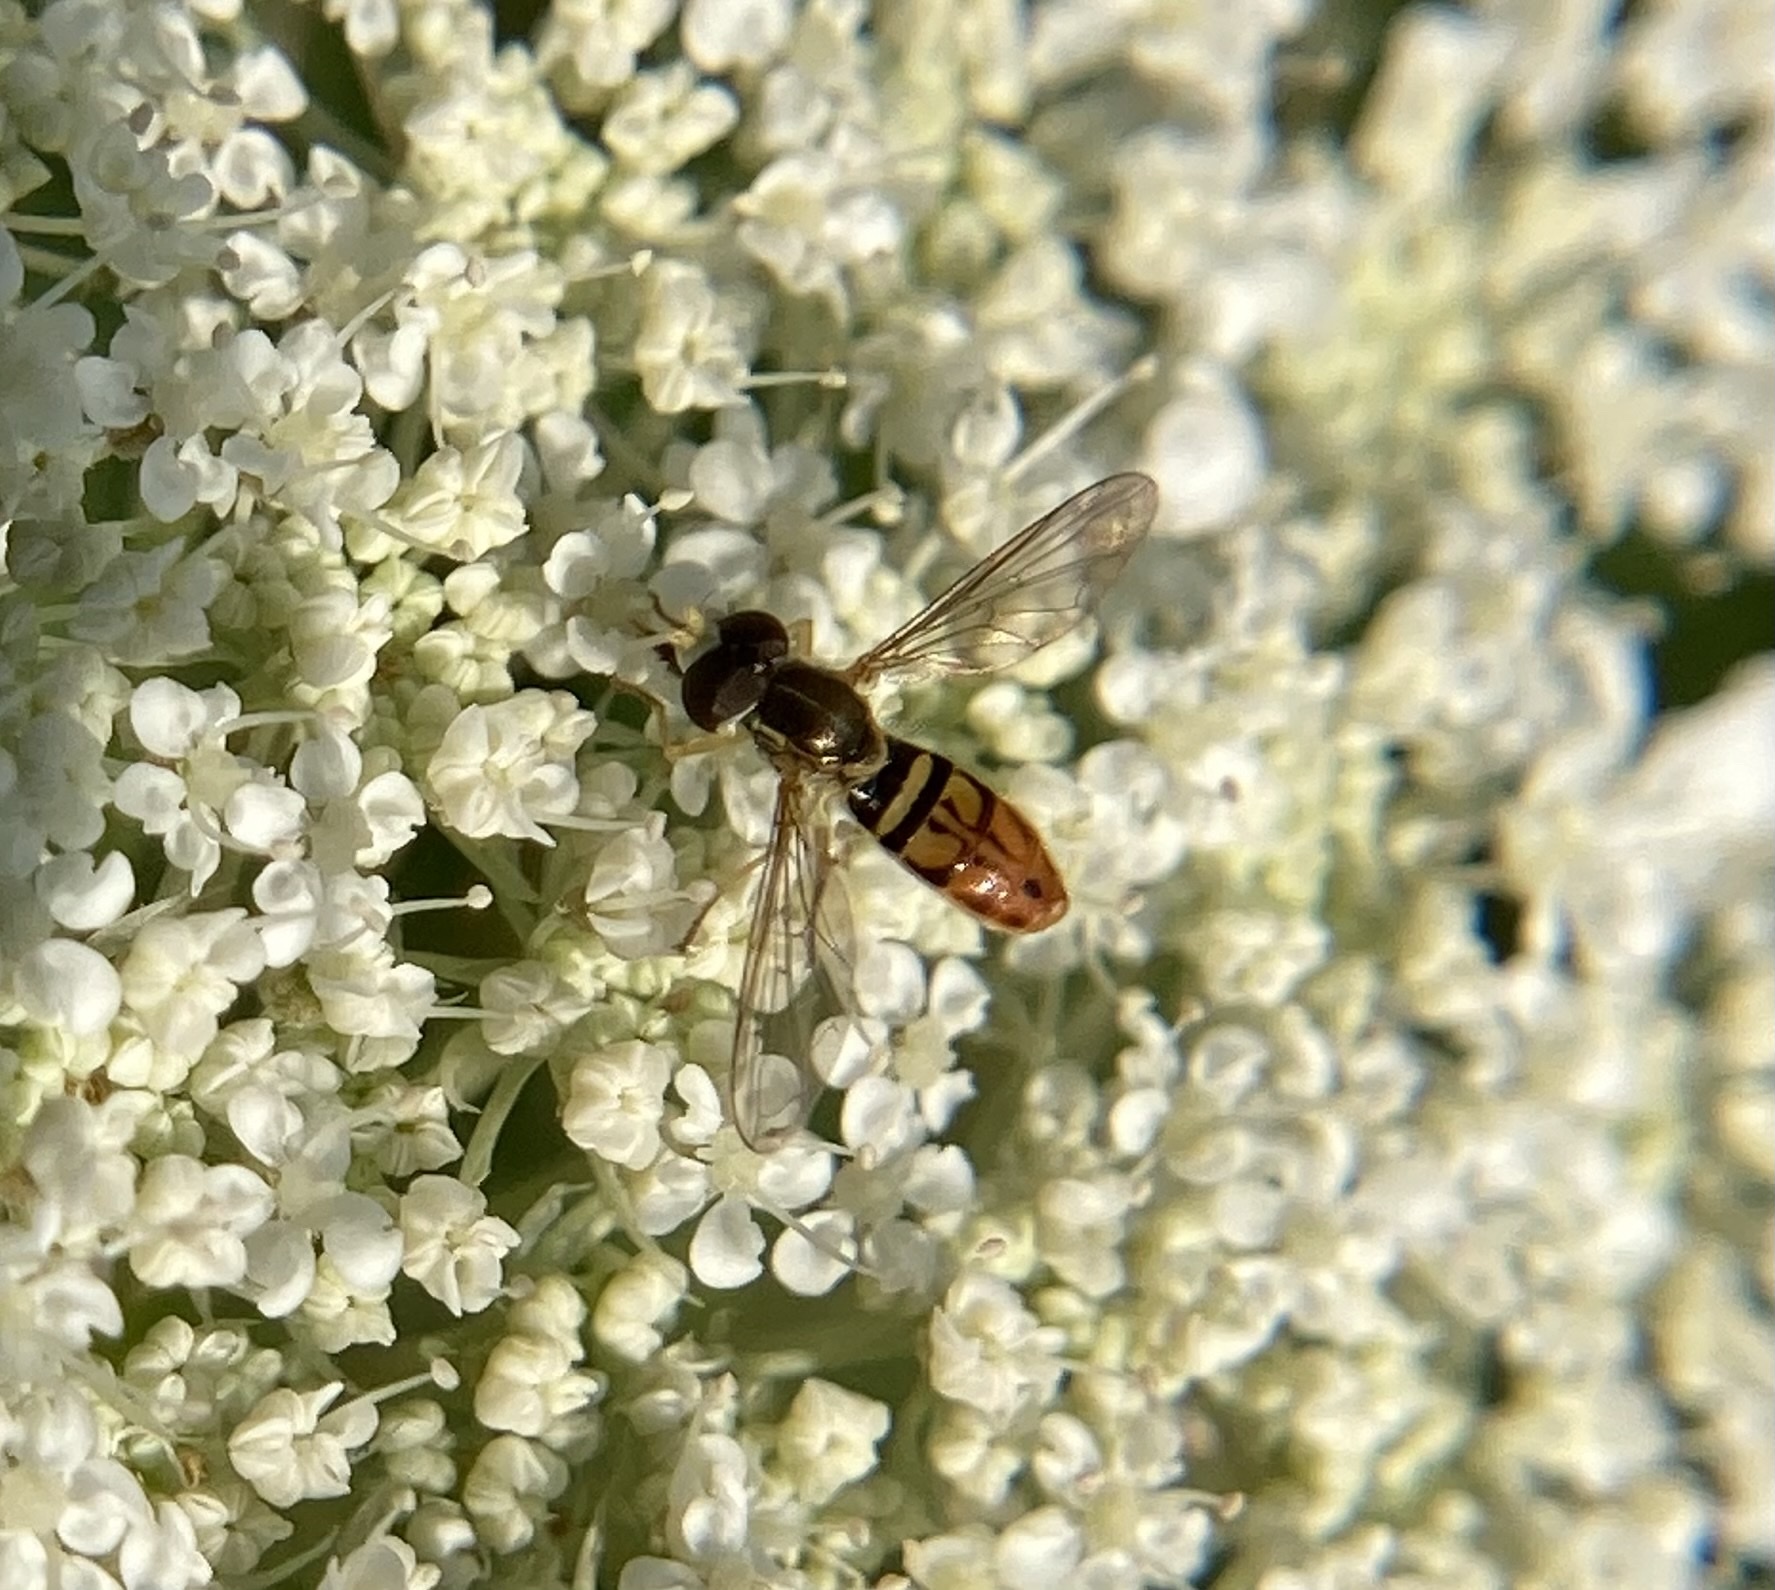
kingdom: Animalia
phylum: Arthropoda
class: Insecta
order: Diptera
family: Syrphidae
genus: Toxomerus
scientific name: Toxomerus marginatus
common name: Syrphid fly
